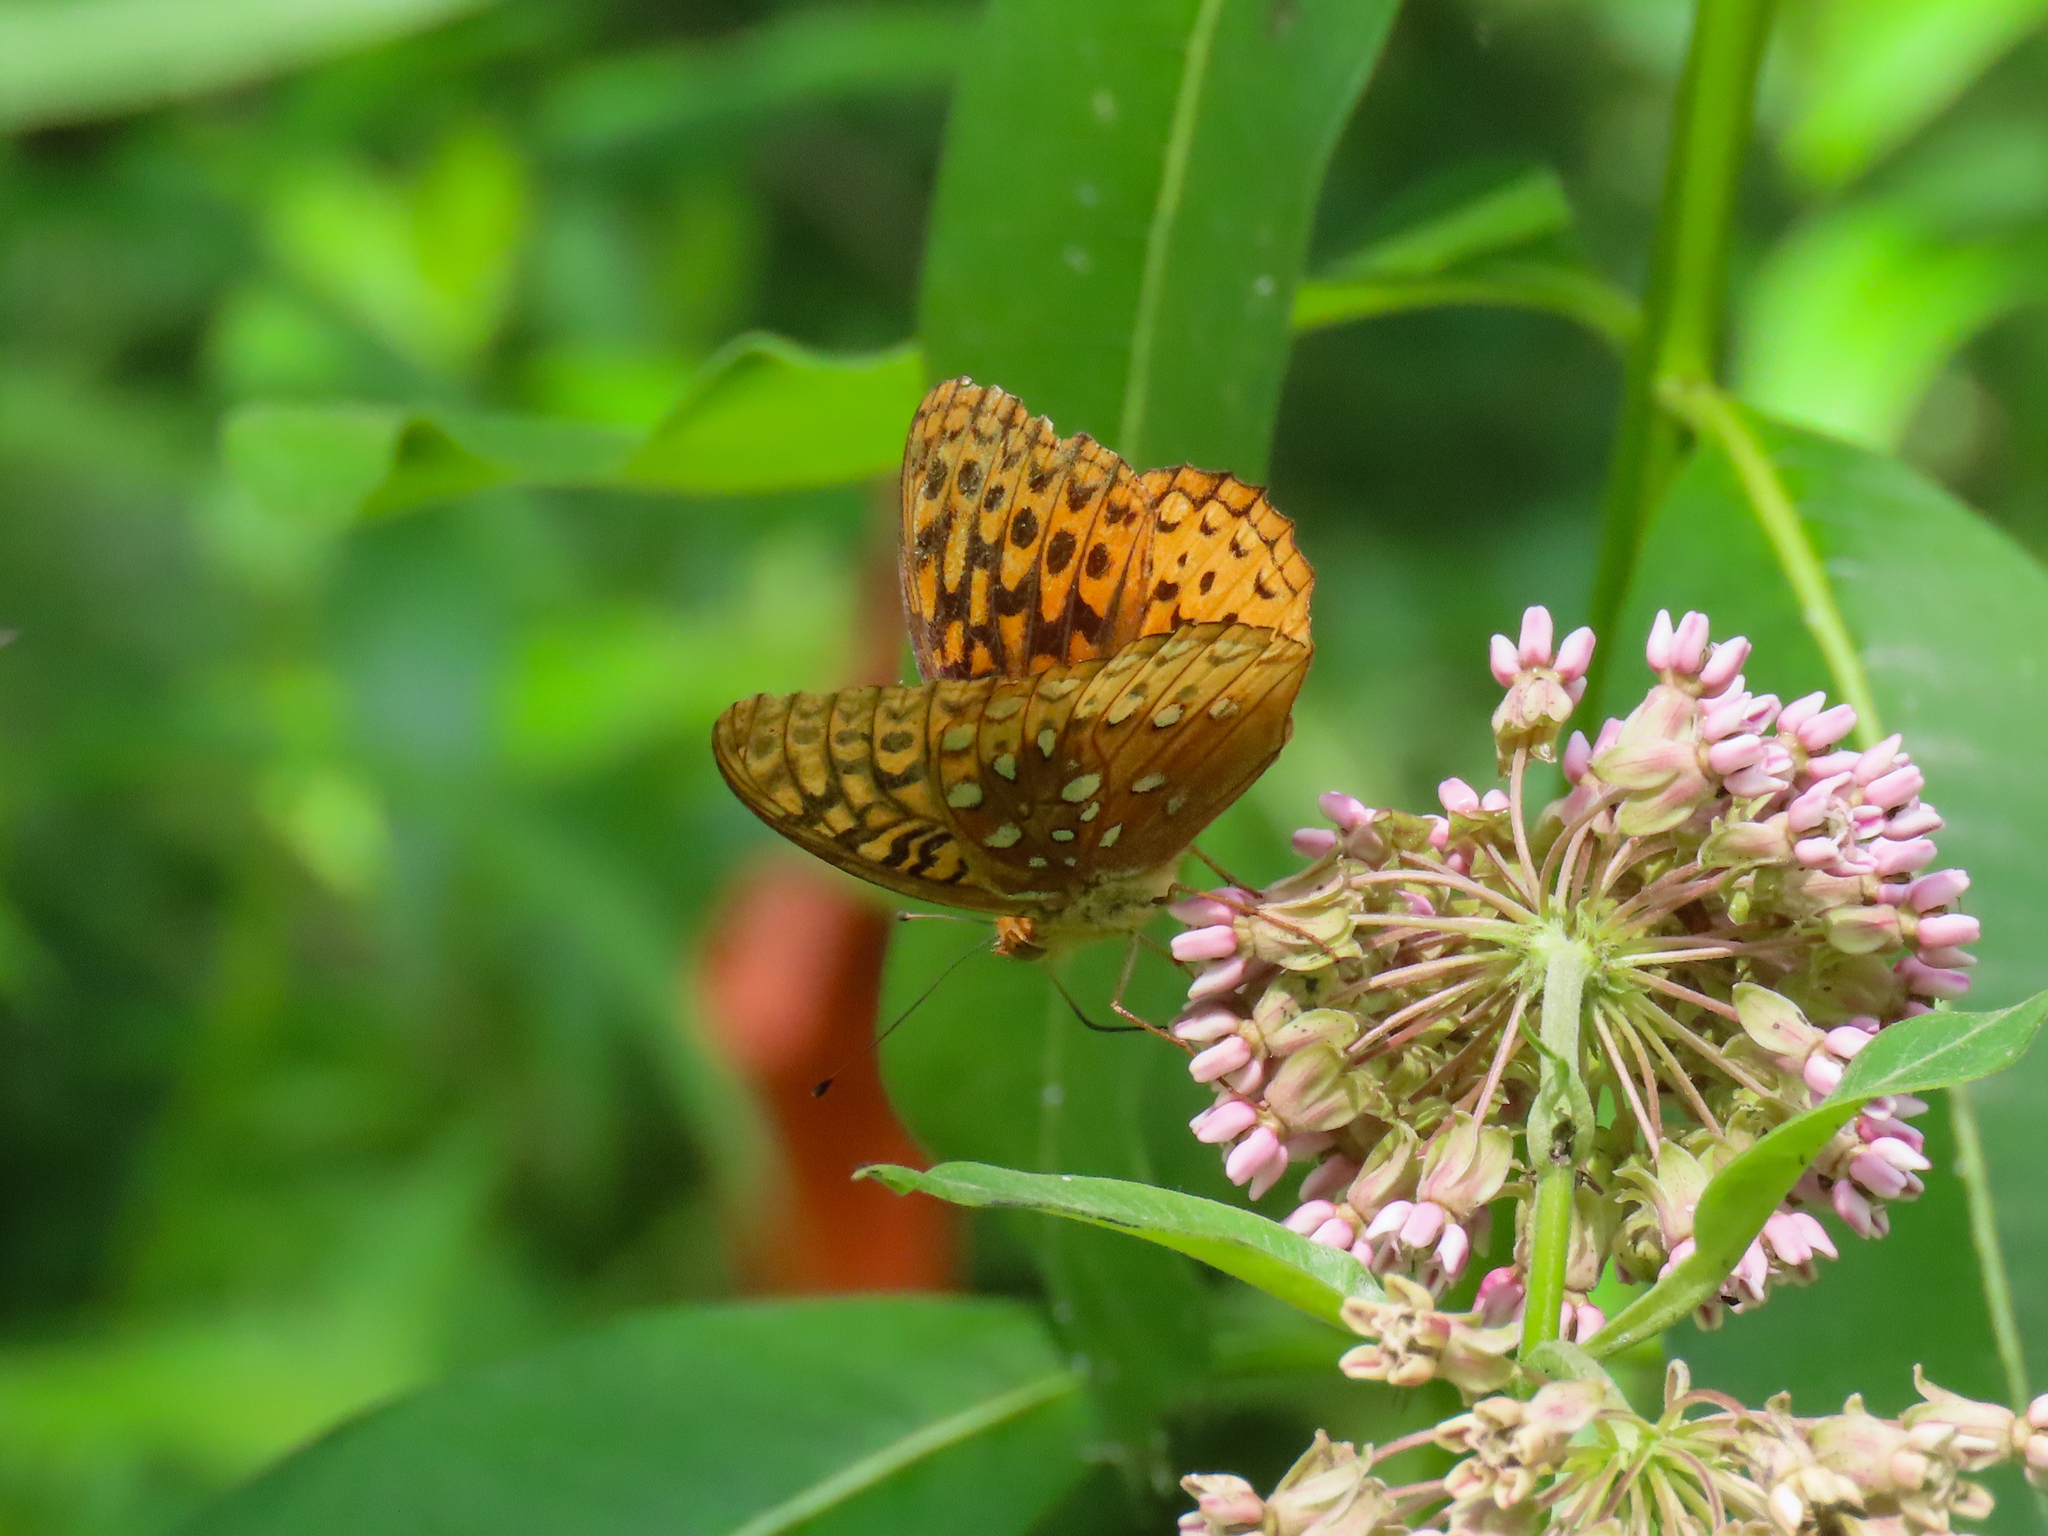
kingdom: Animalia
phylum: Arthropoda
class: Insecta
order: Lepidoptera
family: Nymphalidae
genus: Speyeria
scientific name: Speyeria cybele
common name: Great spangled fritillary
